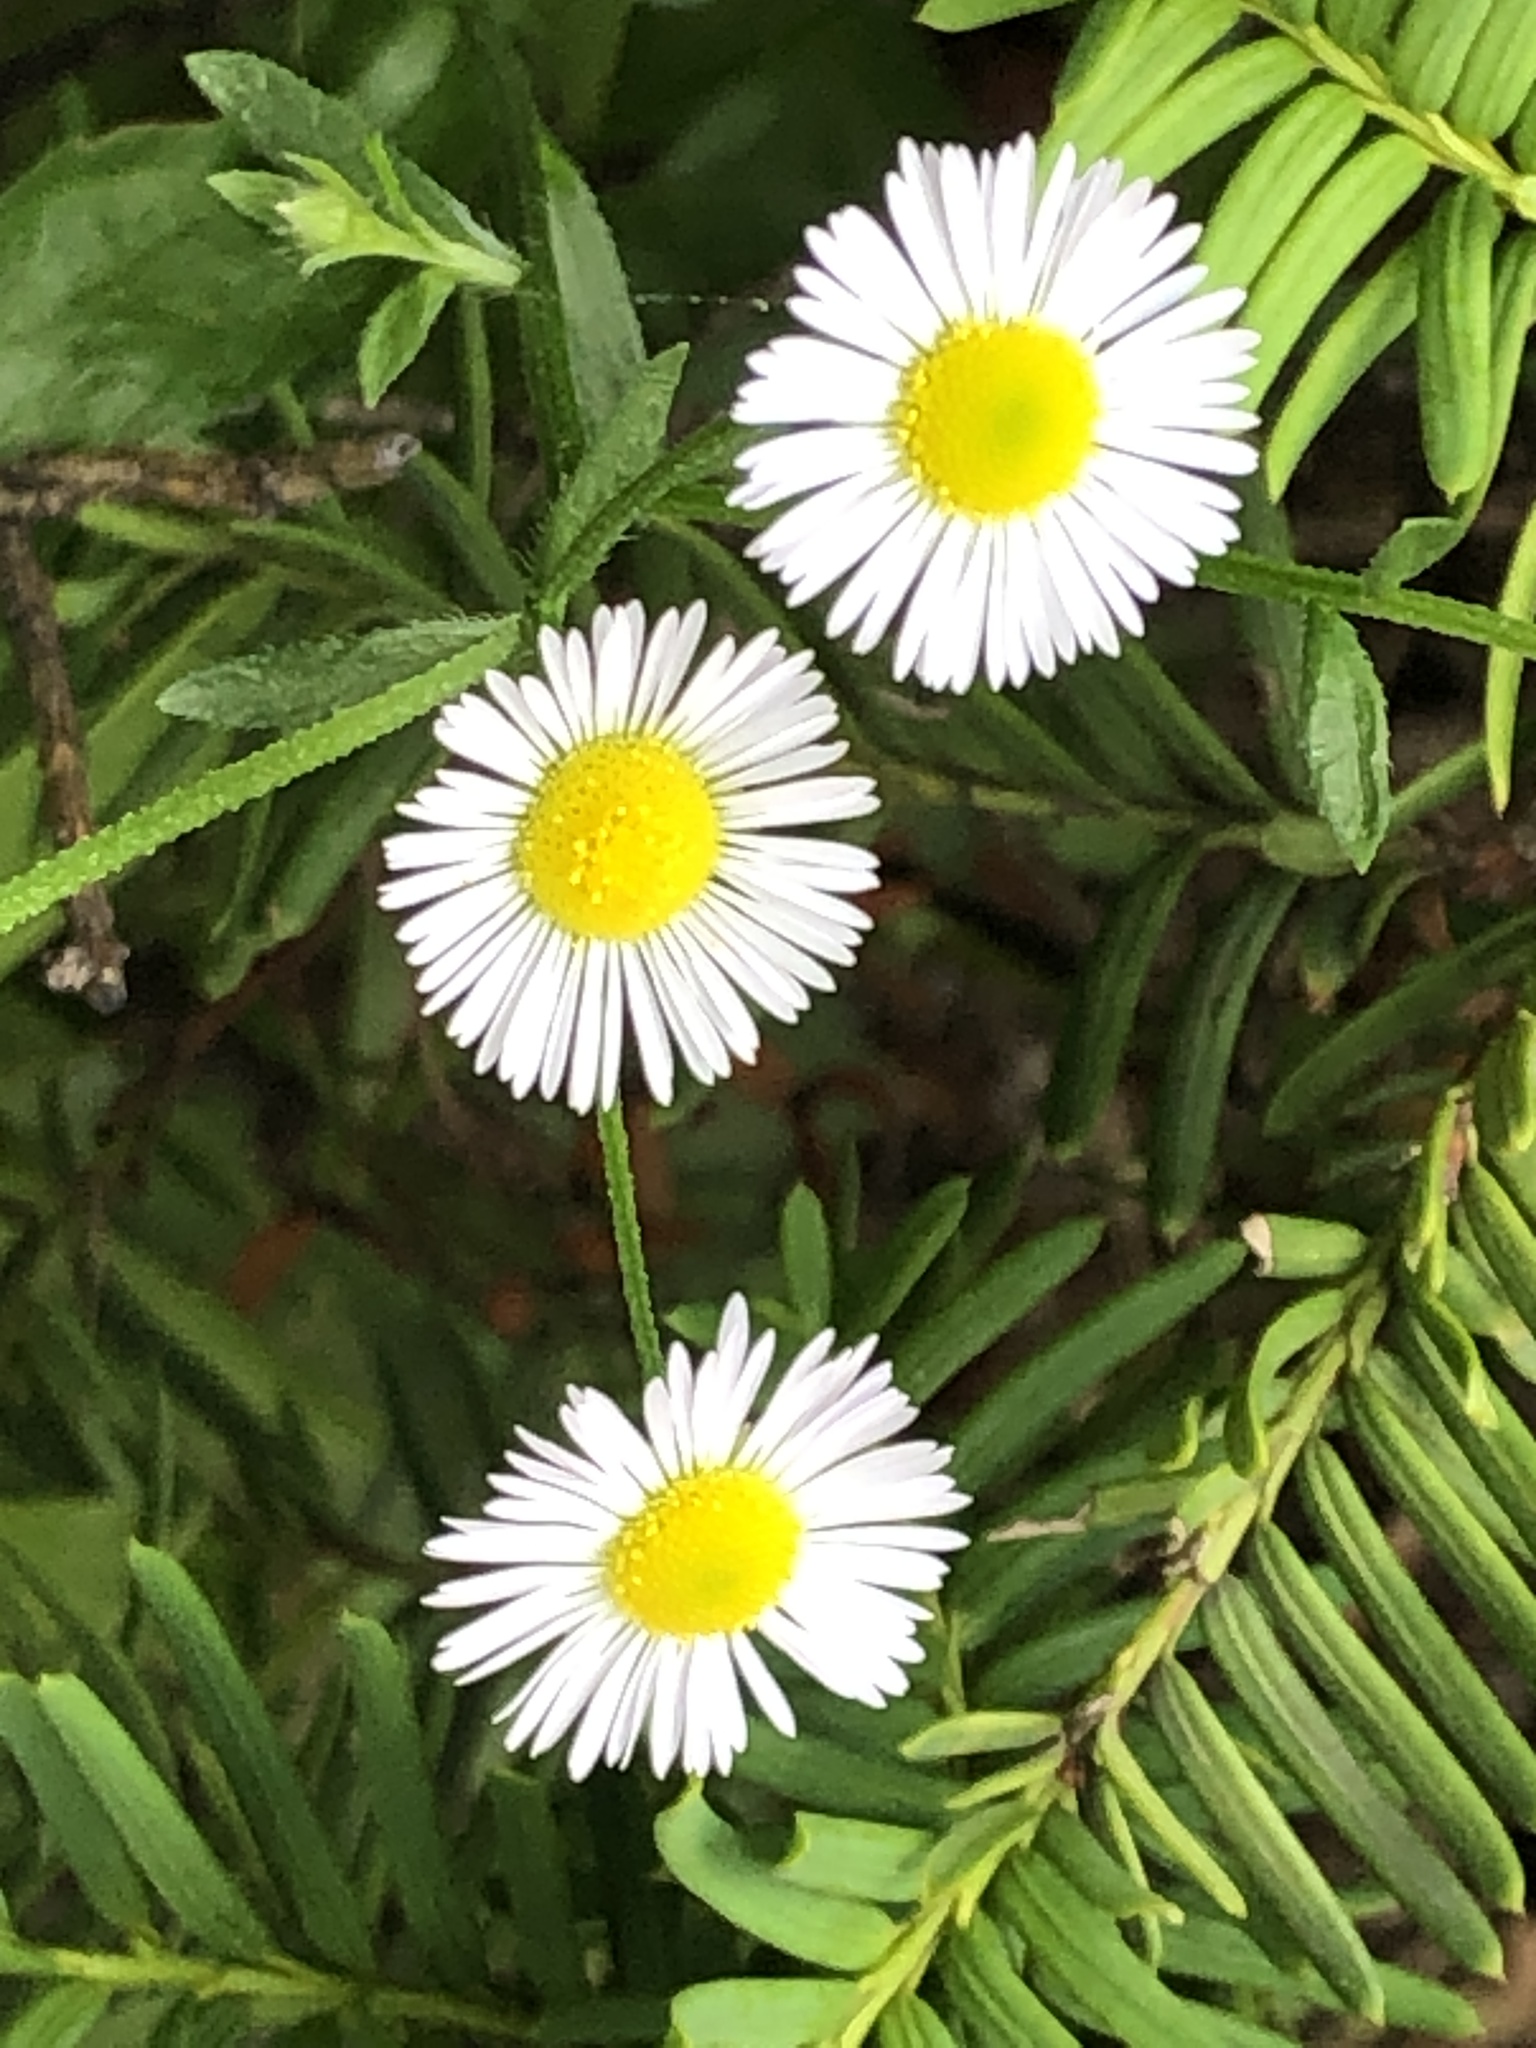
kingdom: Plantae
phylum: Tracheophyta
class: Magnoliopsida
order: Asterales
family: Asteraceae
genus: Erigeron
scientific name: Erigeron annuus
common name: Tall fleabane
